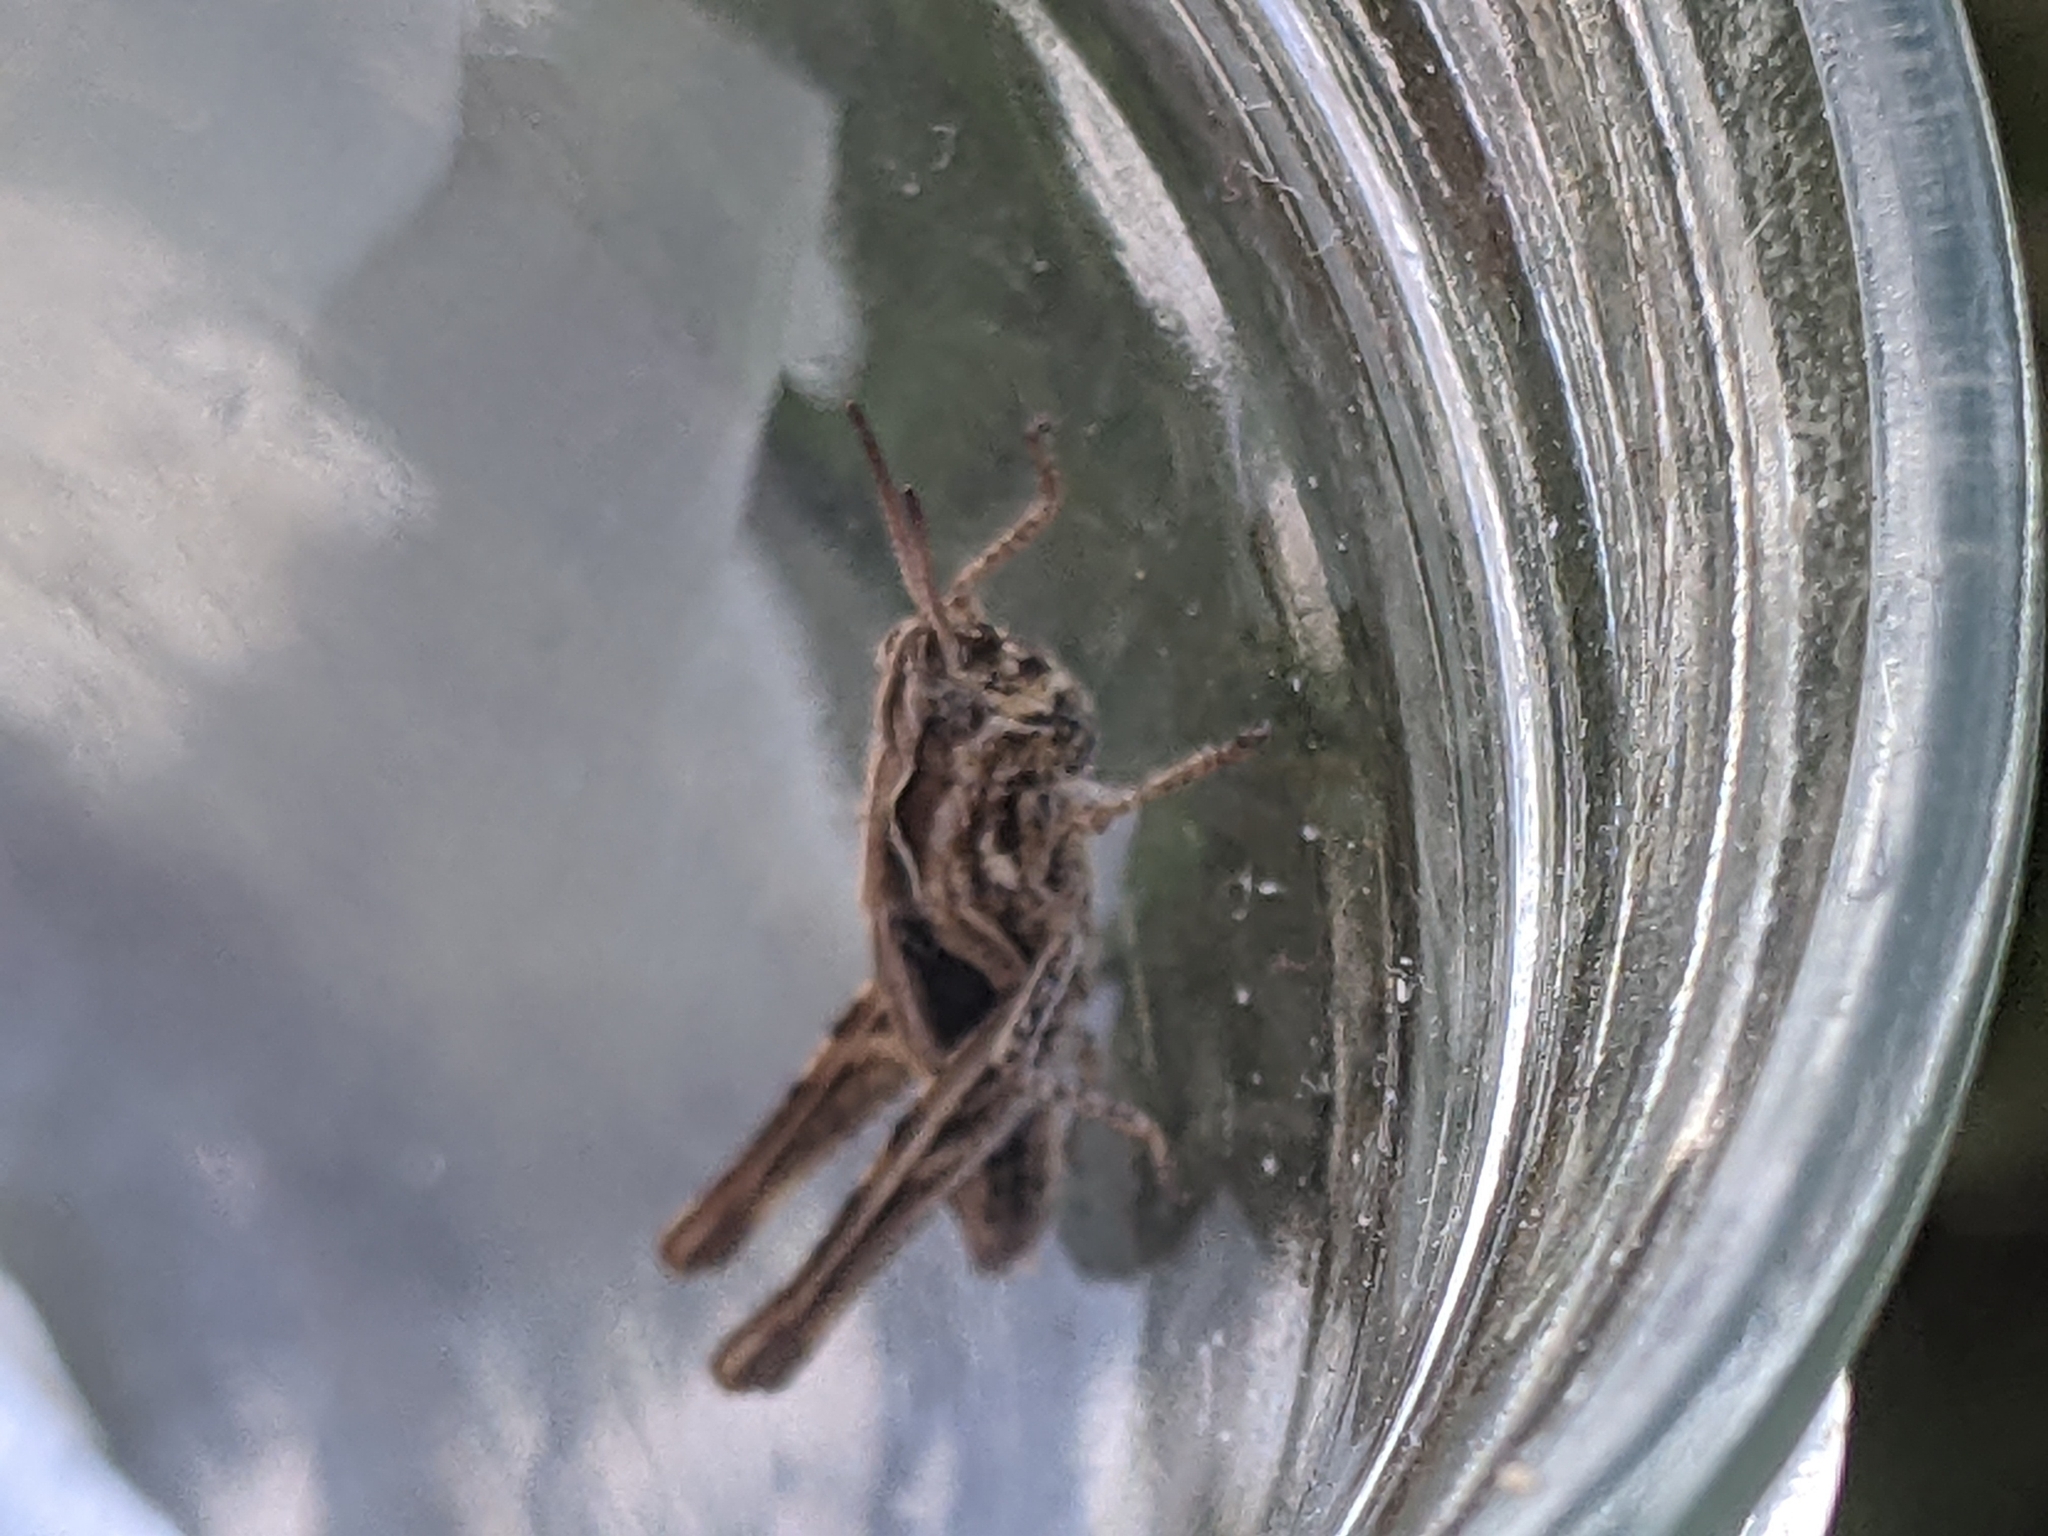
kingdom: Animalia
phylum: Arthropoda
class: Insecta
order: Orthoptera
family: Acrididae
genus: Chorthippus
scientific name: Chorthippus brunneus
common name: Field grasshopper
